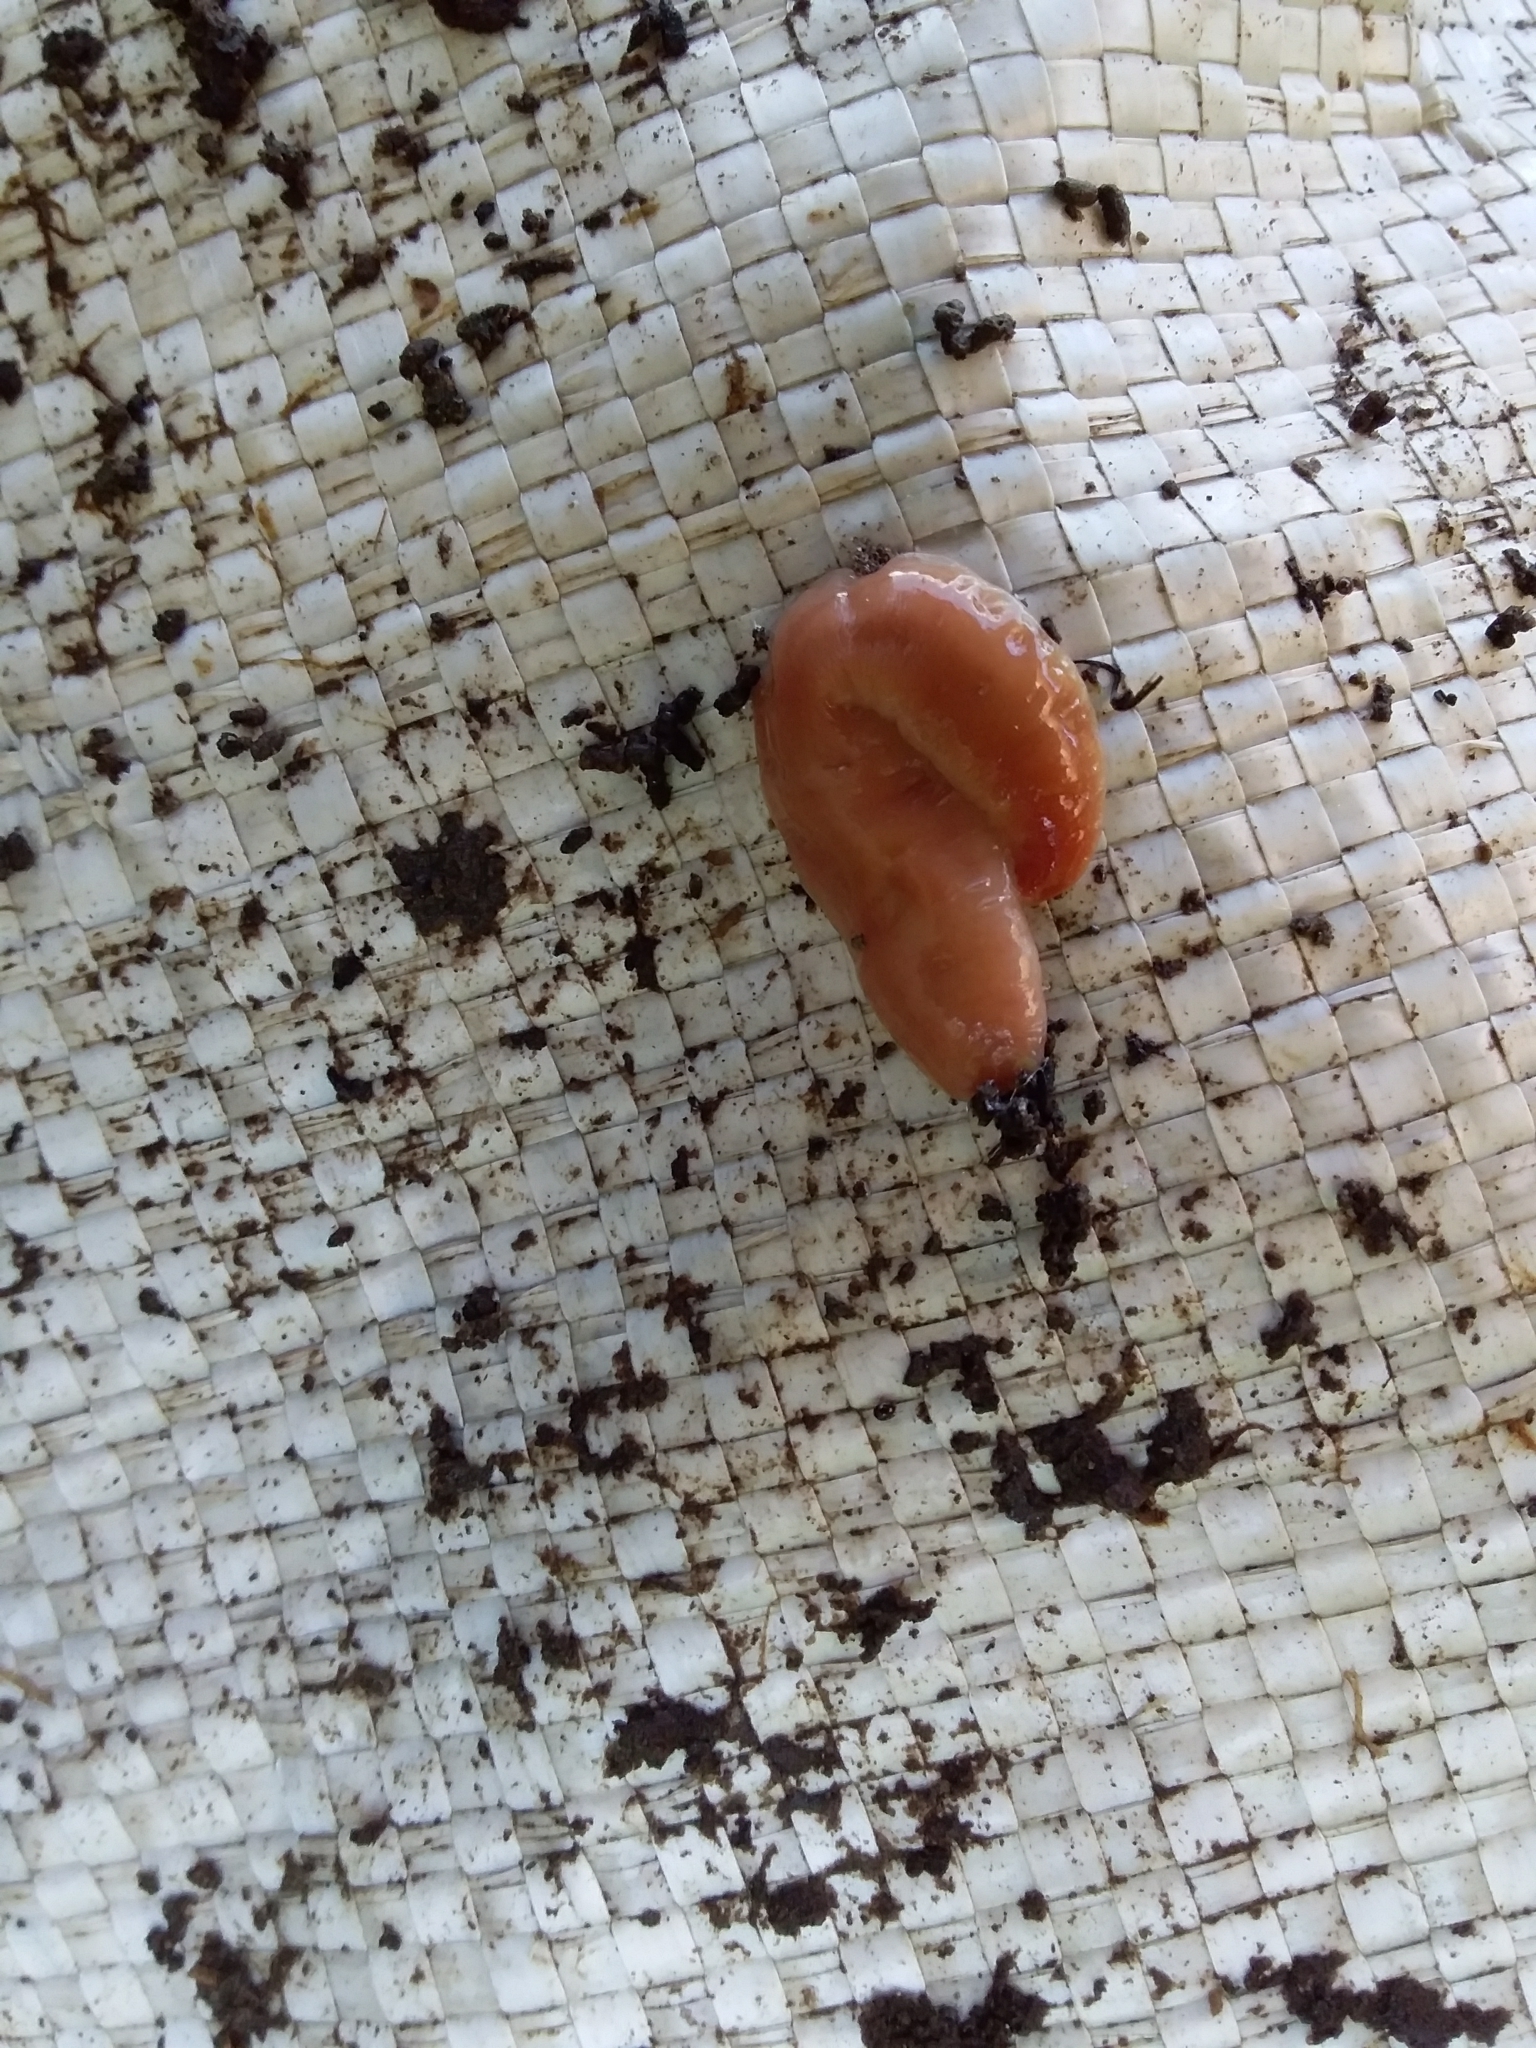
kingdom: Animalia
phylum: Platyhelminthes
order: Tricladida
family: Geoplanidae
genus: Australoplana
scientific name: Australoplana sanguinea
